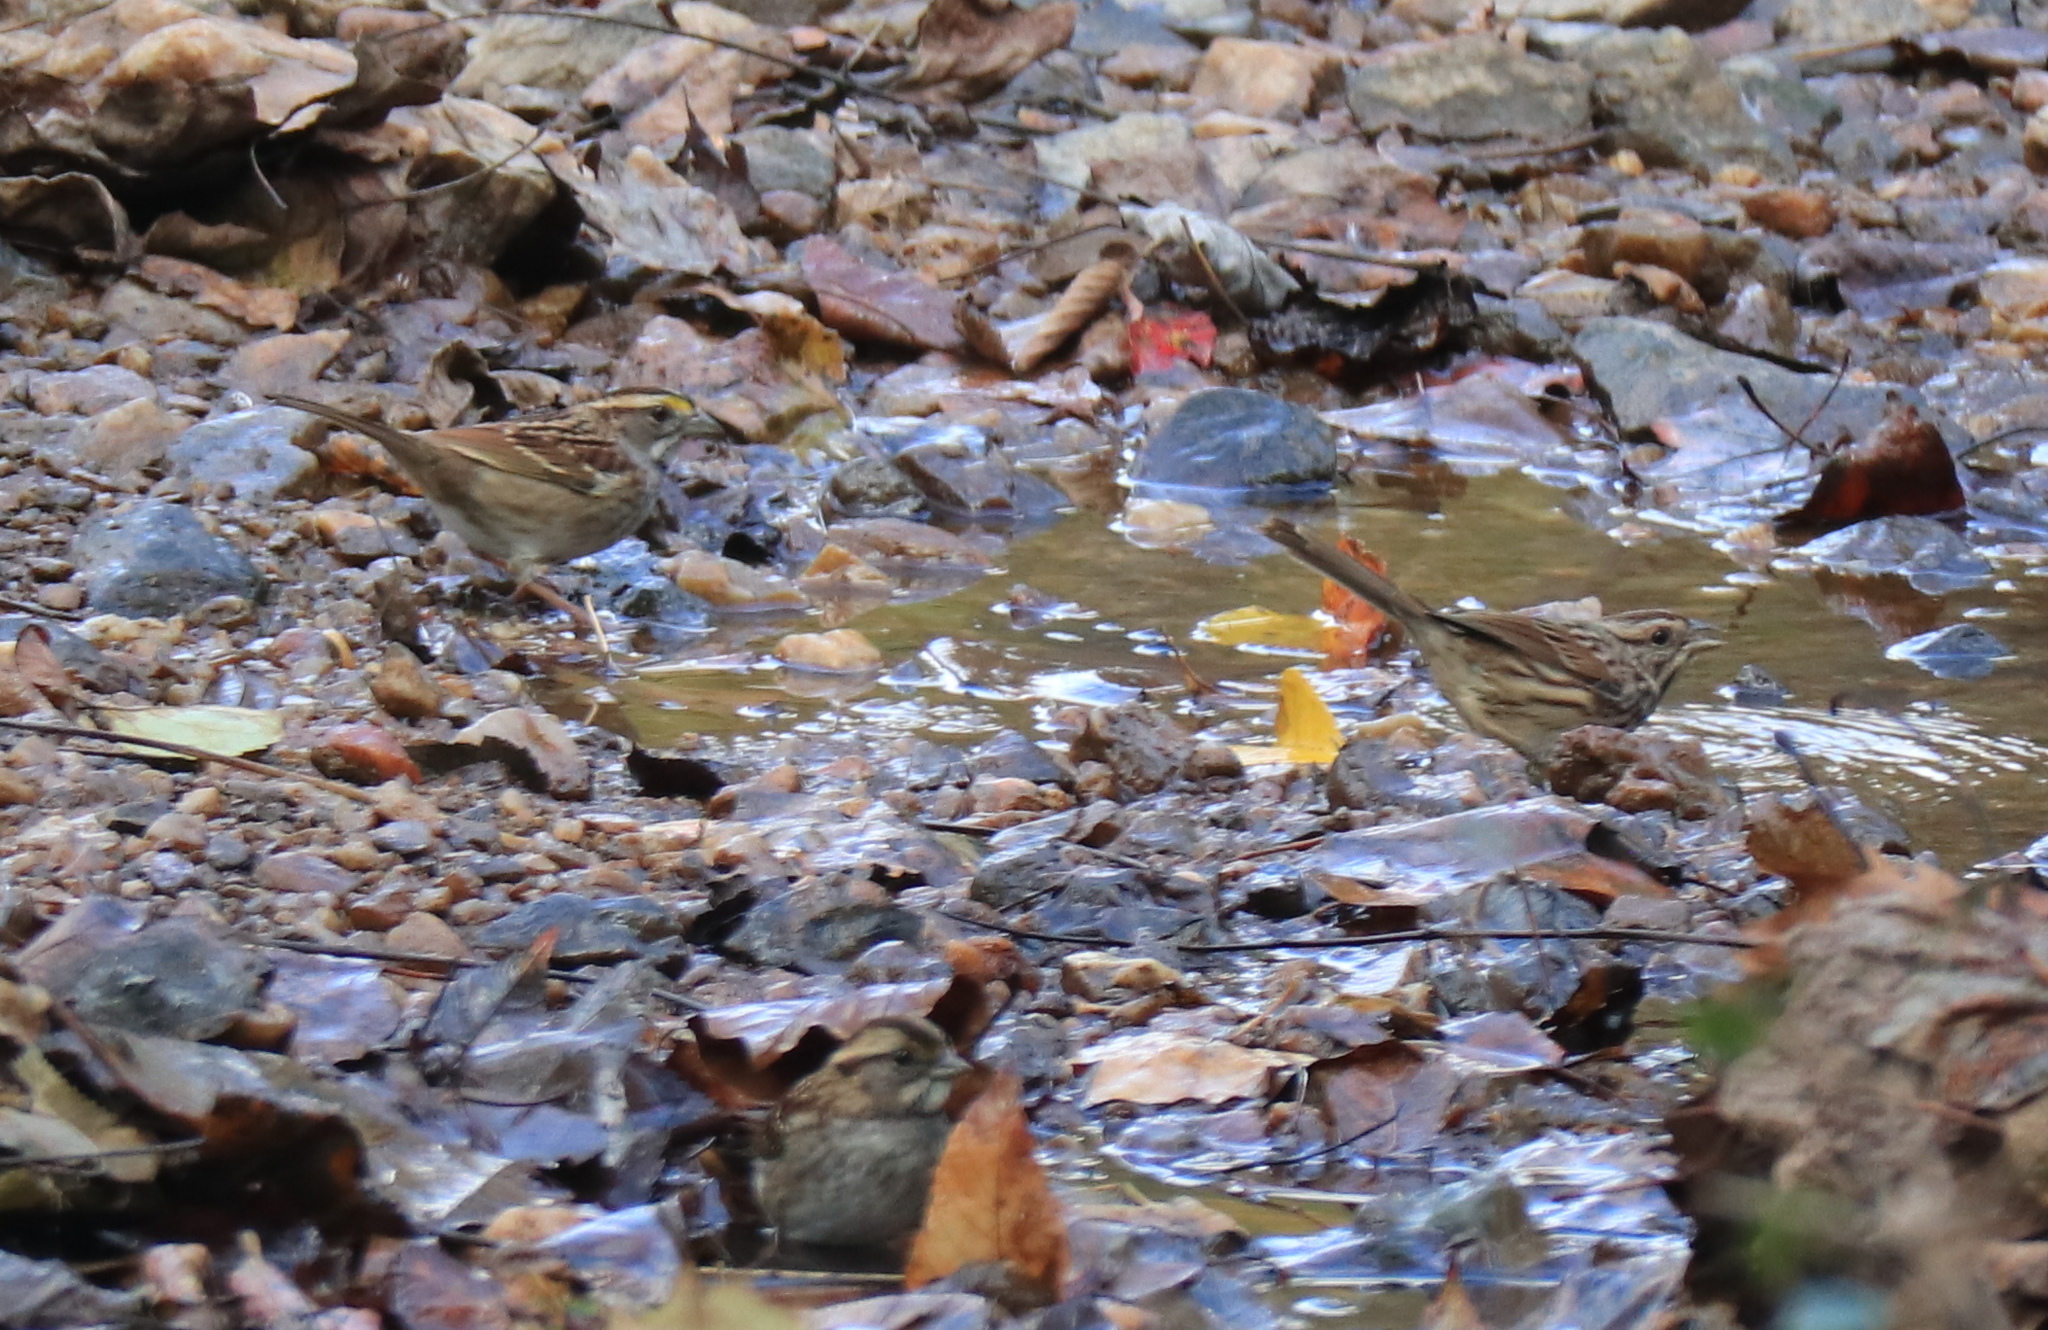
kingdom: Animalia
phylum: Chordata
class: Aves
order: Passeriformes
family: Passerellidae
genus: Zonotrichia
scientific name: Zonotrichia albicollis
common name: White-throated sparrow
